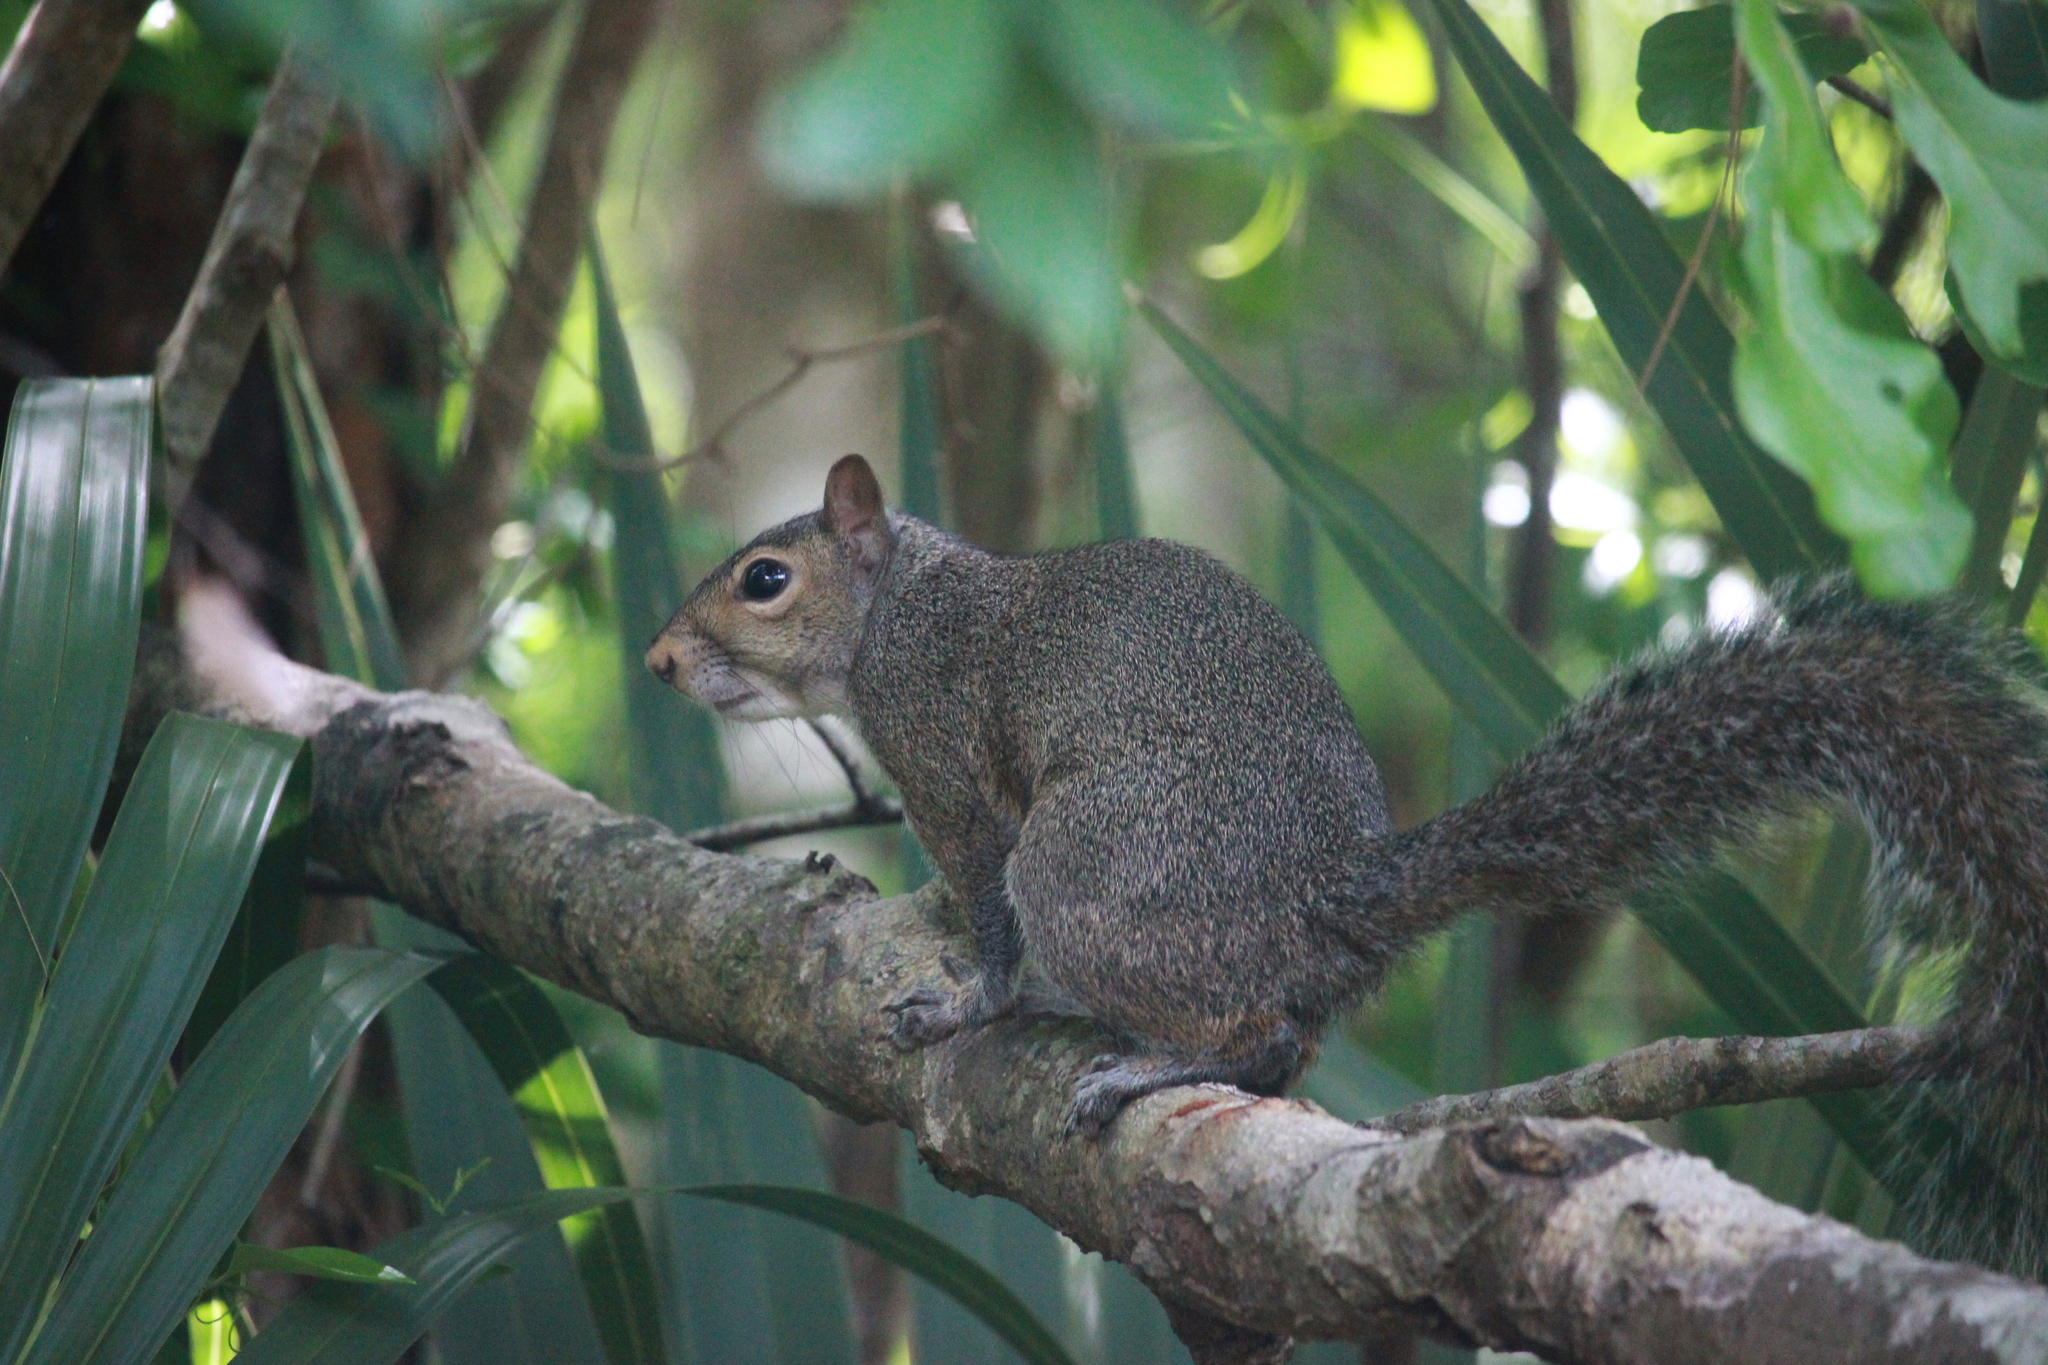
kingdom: Animalia
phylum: Chordata
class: Mammalia
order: Rodentia
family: Sciuridae
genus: Sciurus
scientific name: Sciurus carolinensis
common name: Eastern gray squirrel
